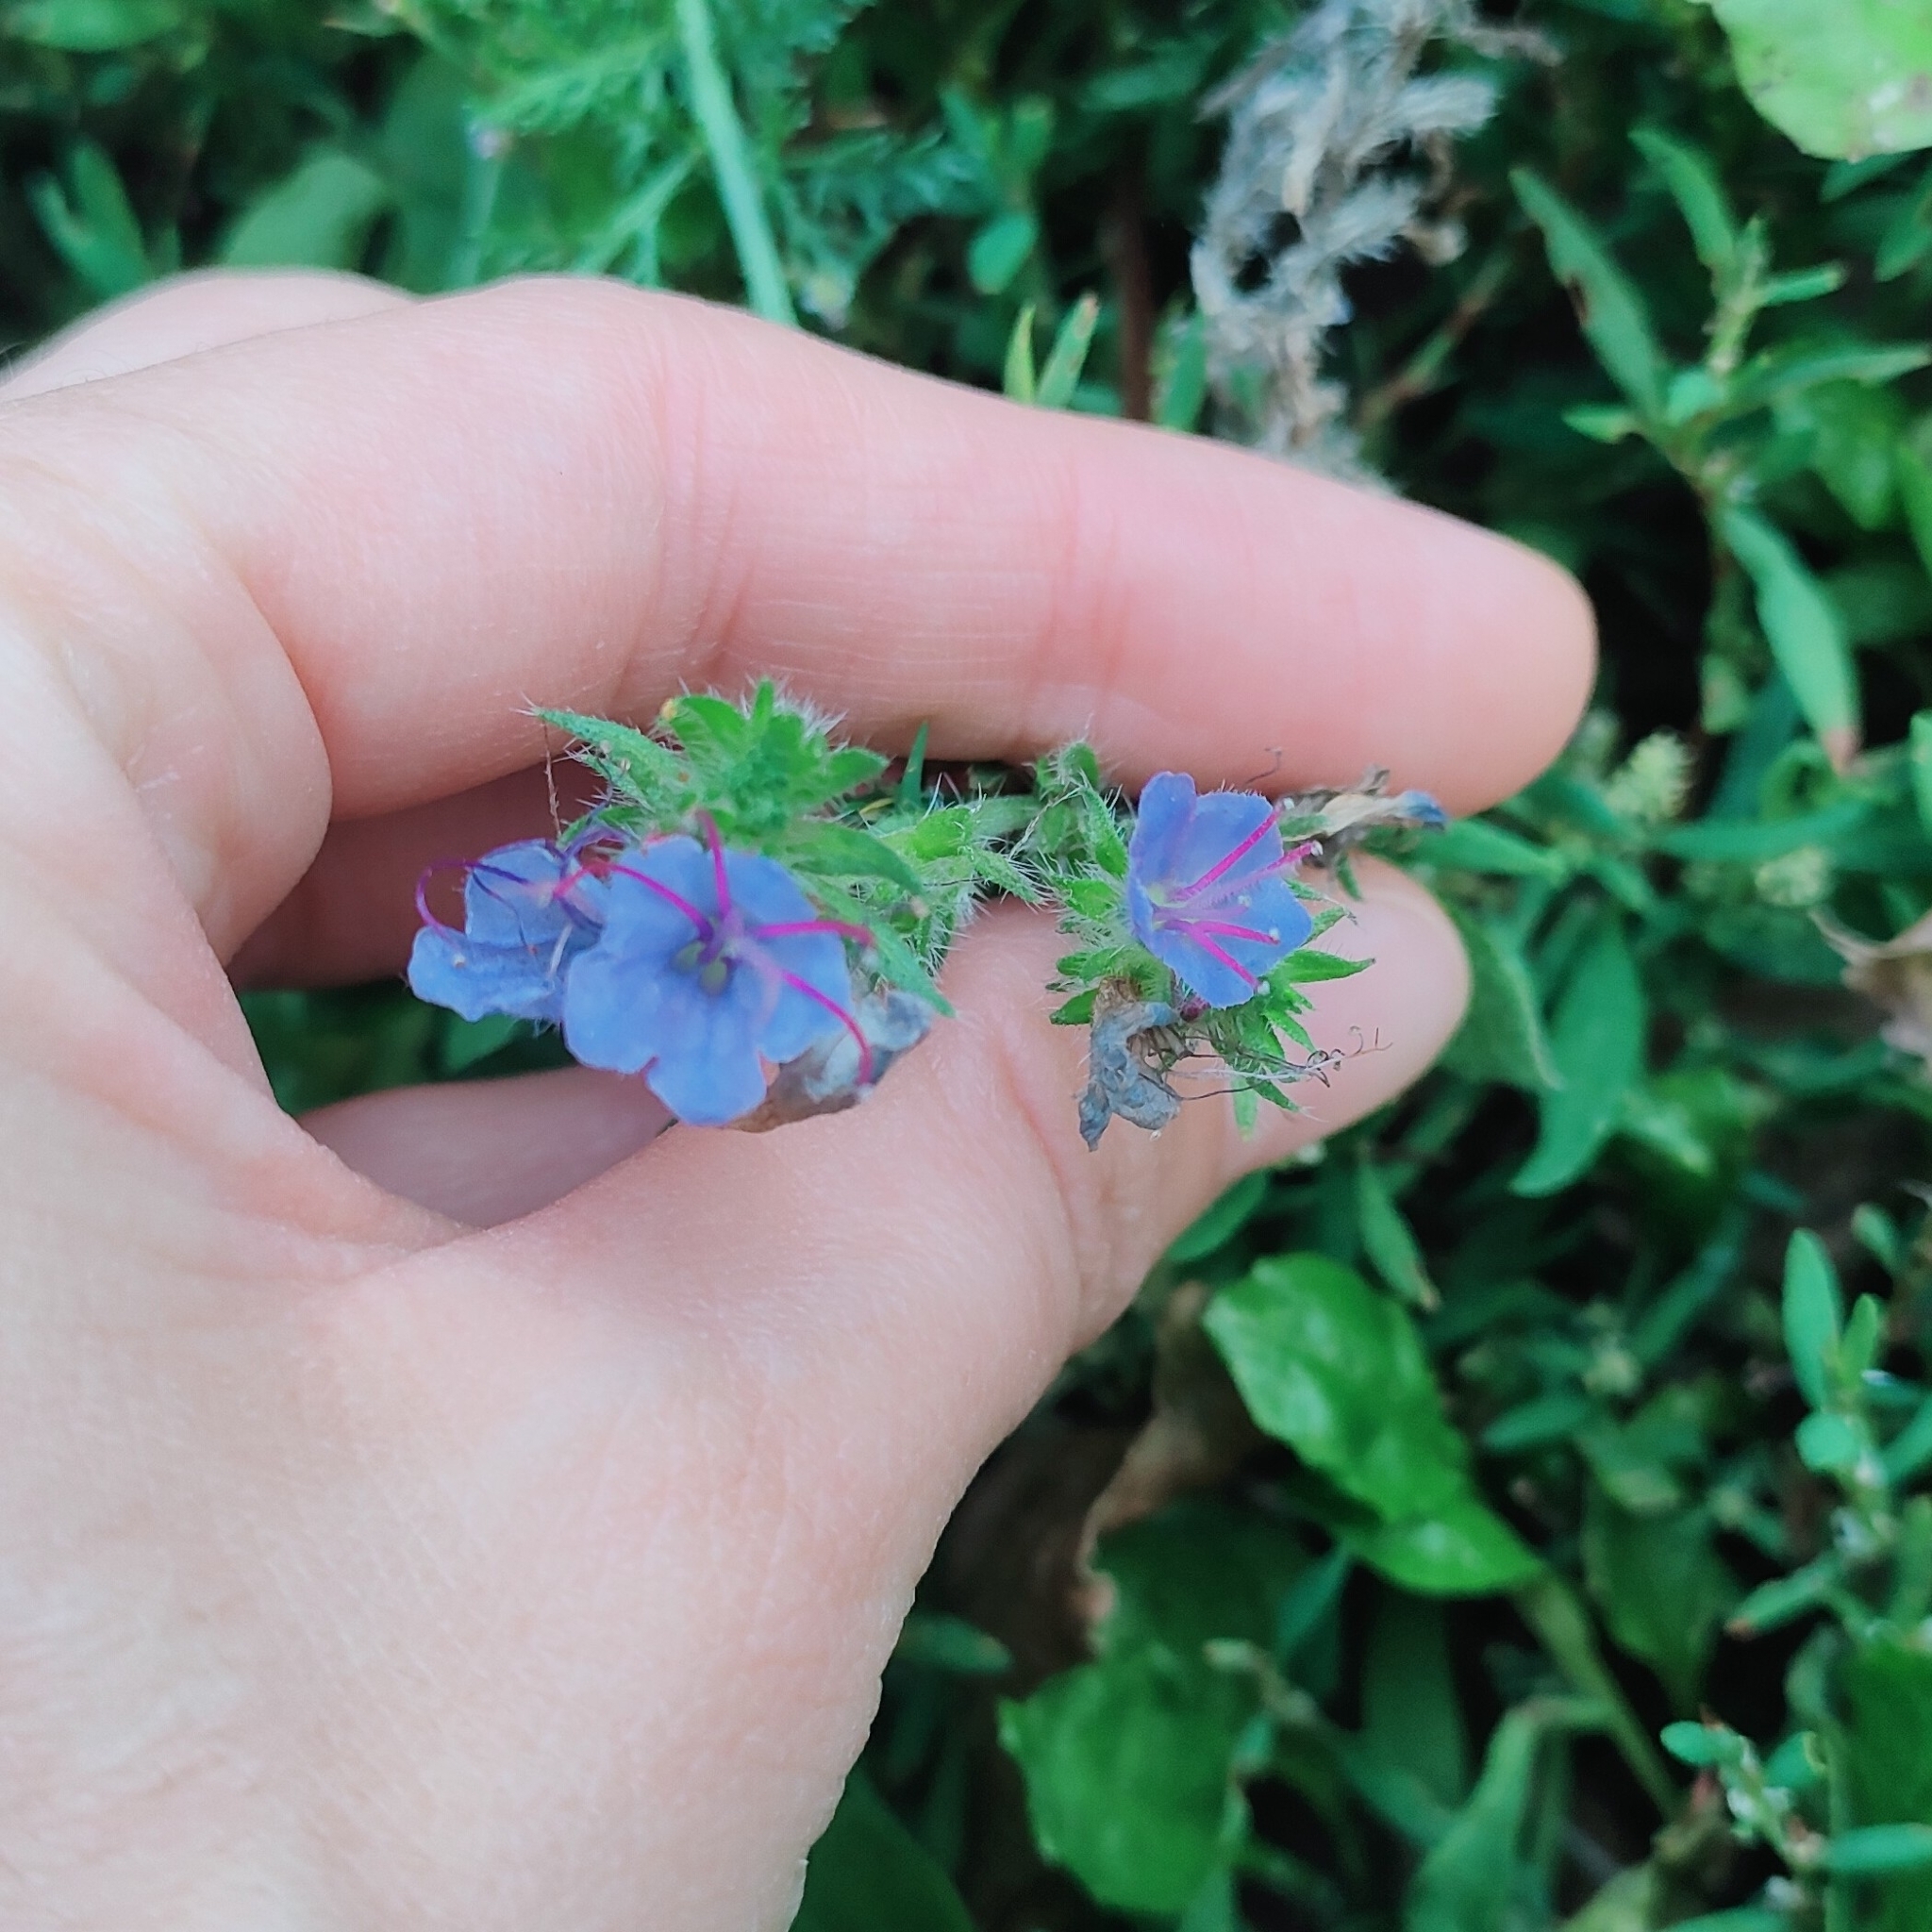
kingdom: Plantae
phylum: Tracheophyta
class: Magnoliopsida
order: Boraginales
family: Boraginaceae
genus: Echium
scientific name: Echium vulgare
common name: Common viper's bugloss
